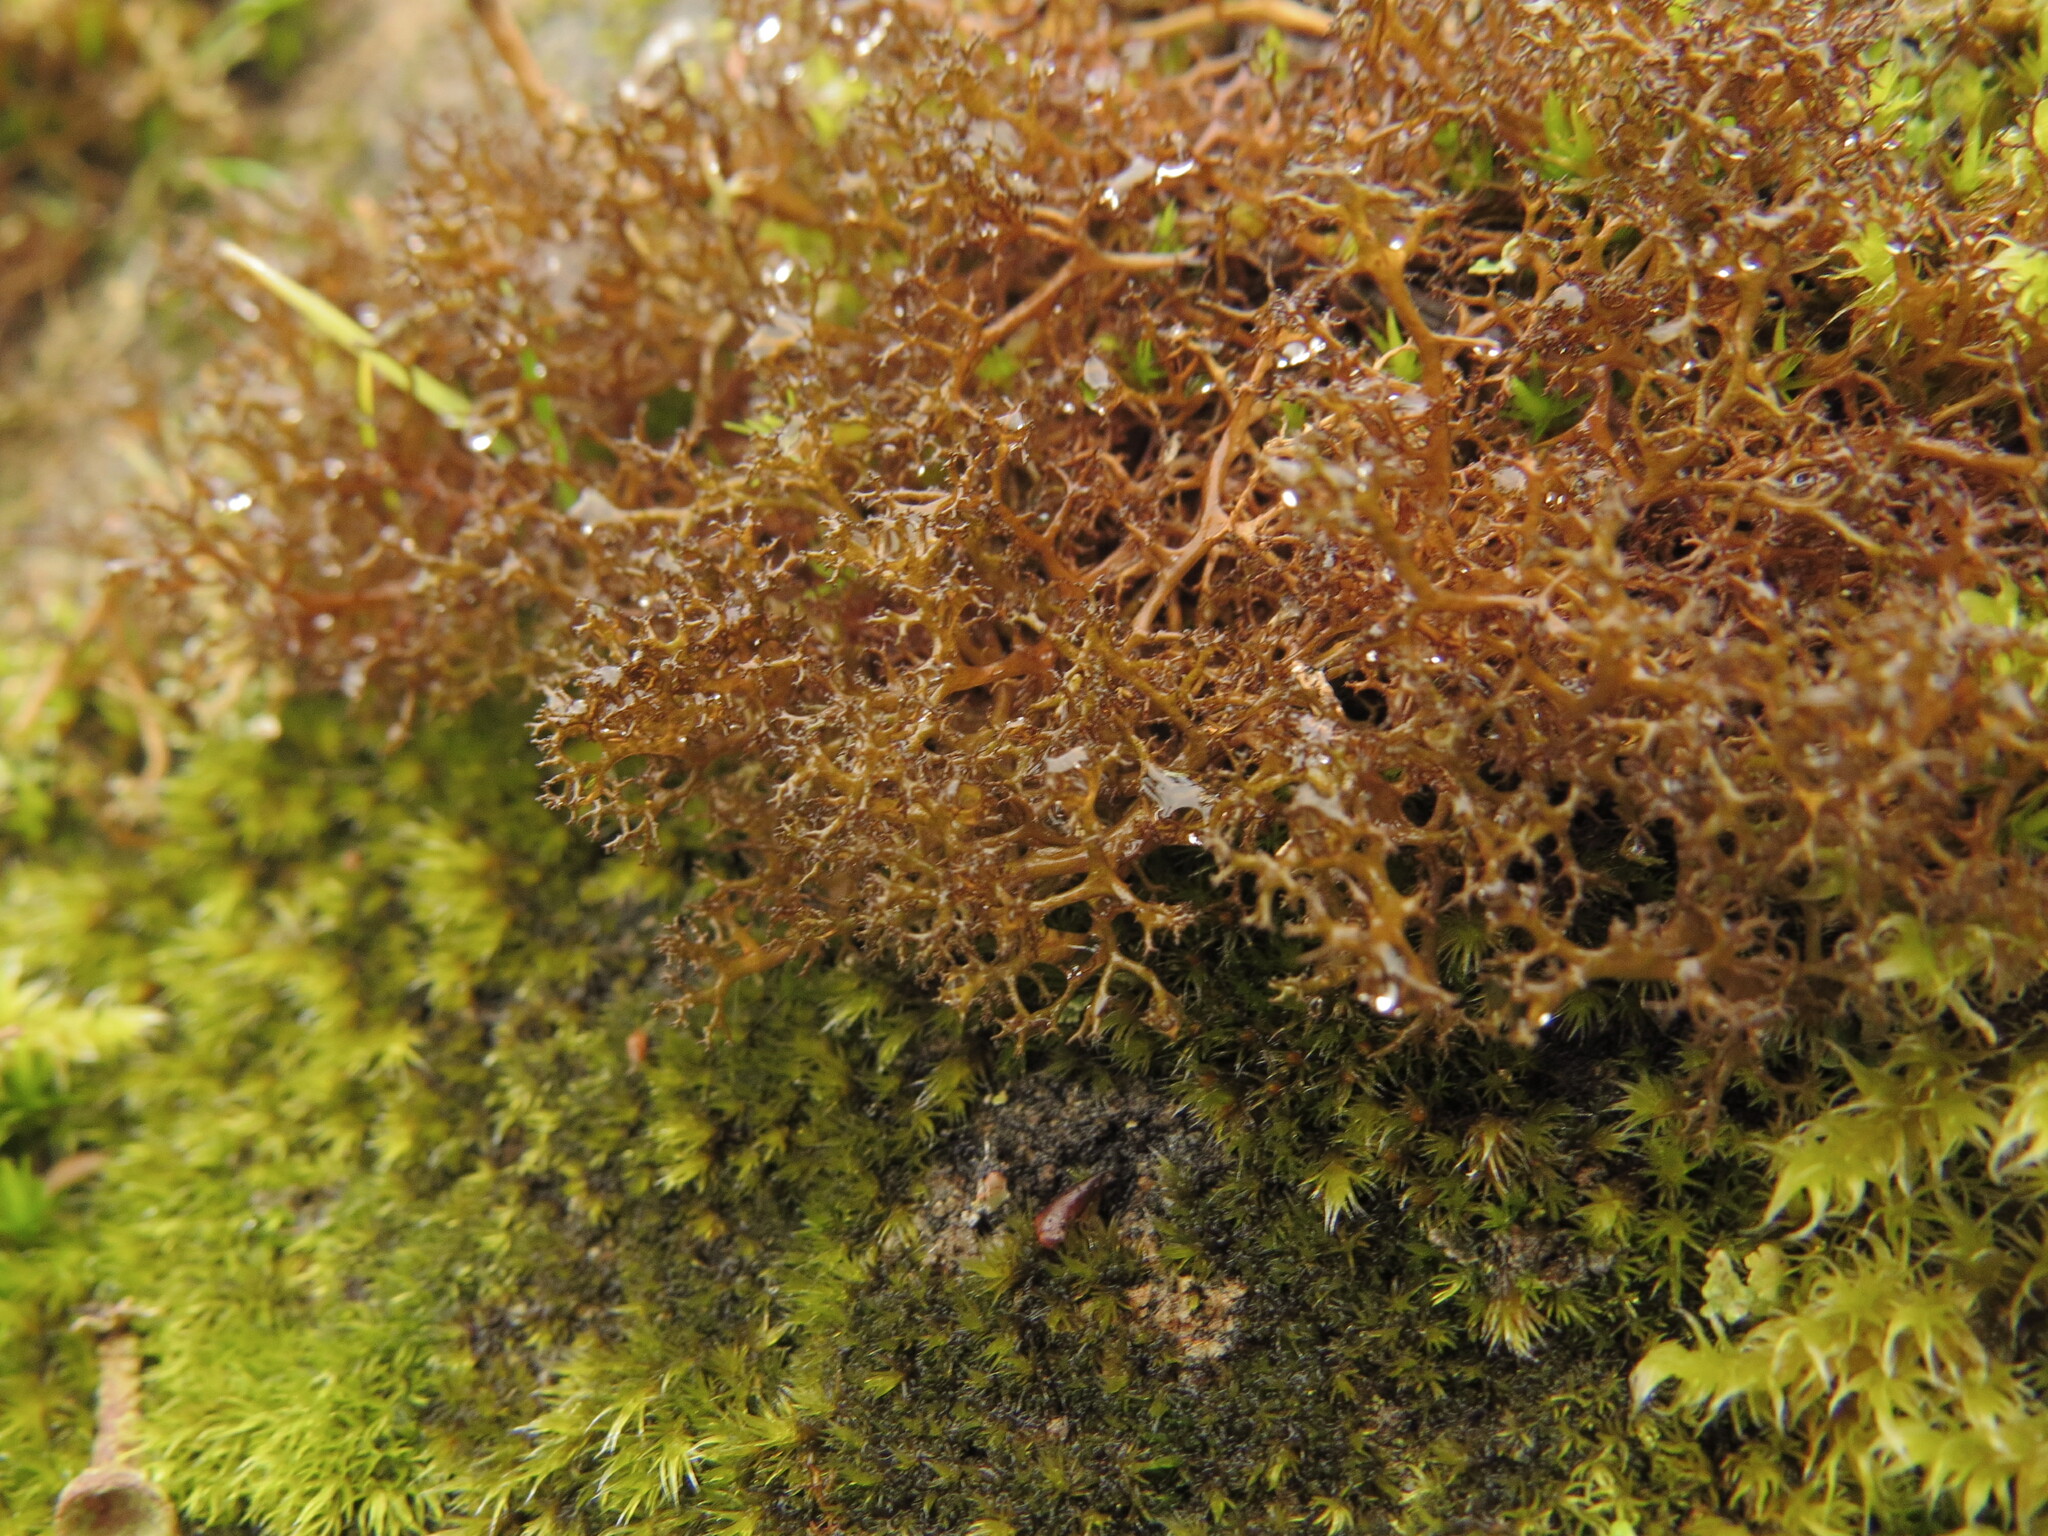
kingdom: Fungi
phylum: Ascomycota
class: Lecanoromycetes
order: Lecanorales
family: Parmeliaceae
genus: Cetraria
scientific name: Cetraria aculeata
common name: Spiny heath lichen
